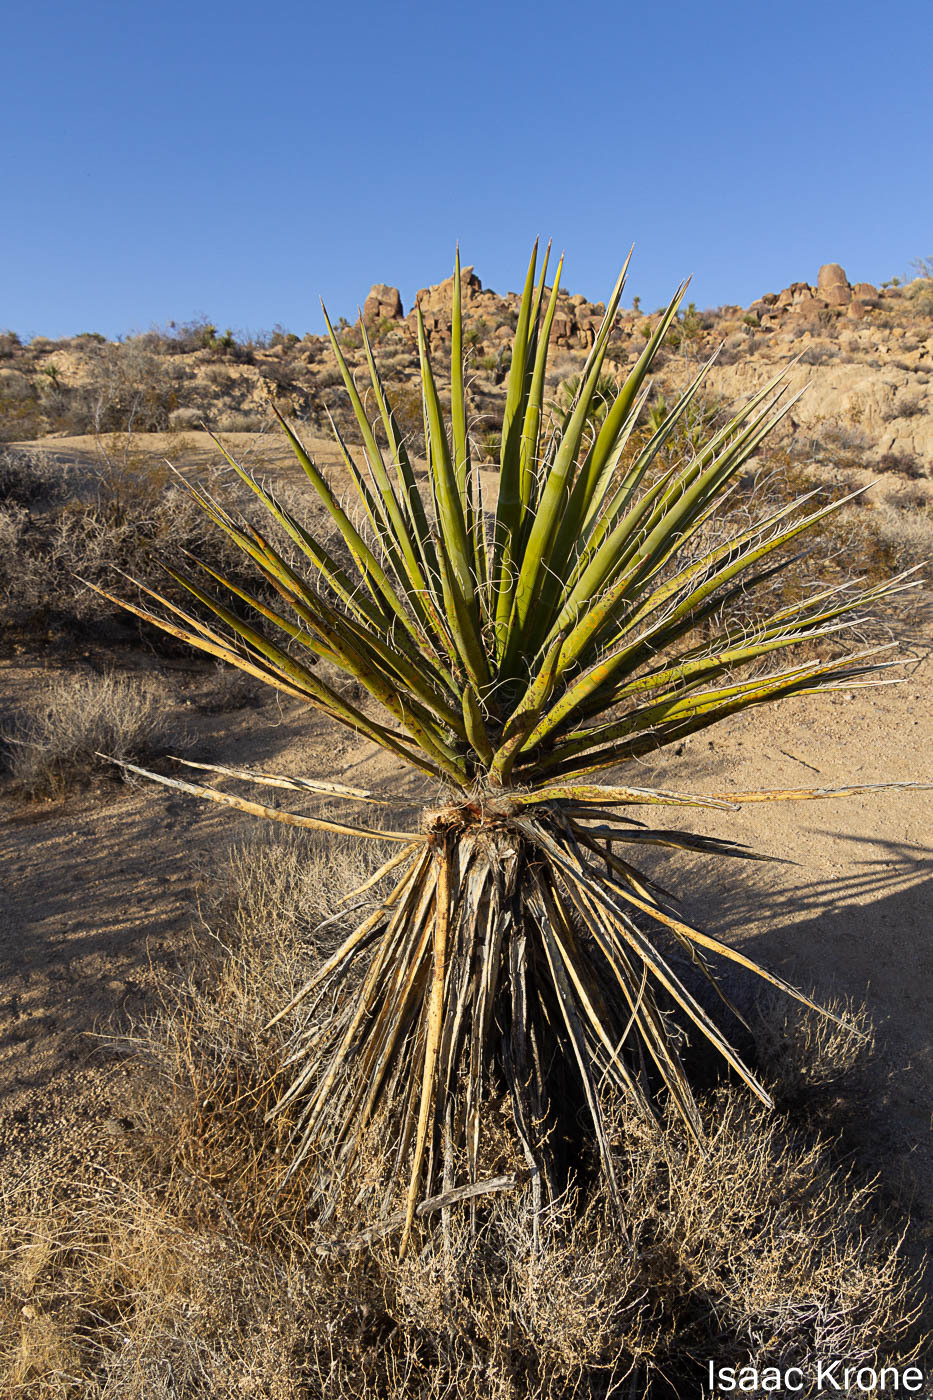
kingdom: Plantae
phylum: Tracheophyta
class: Liliopsida
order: Asparagales
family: Asparagaceae
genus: Yucca
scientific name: Yucca schidigera
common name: Mojave yucca
